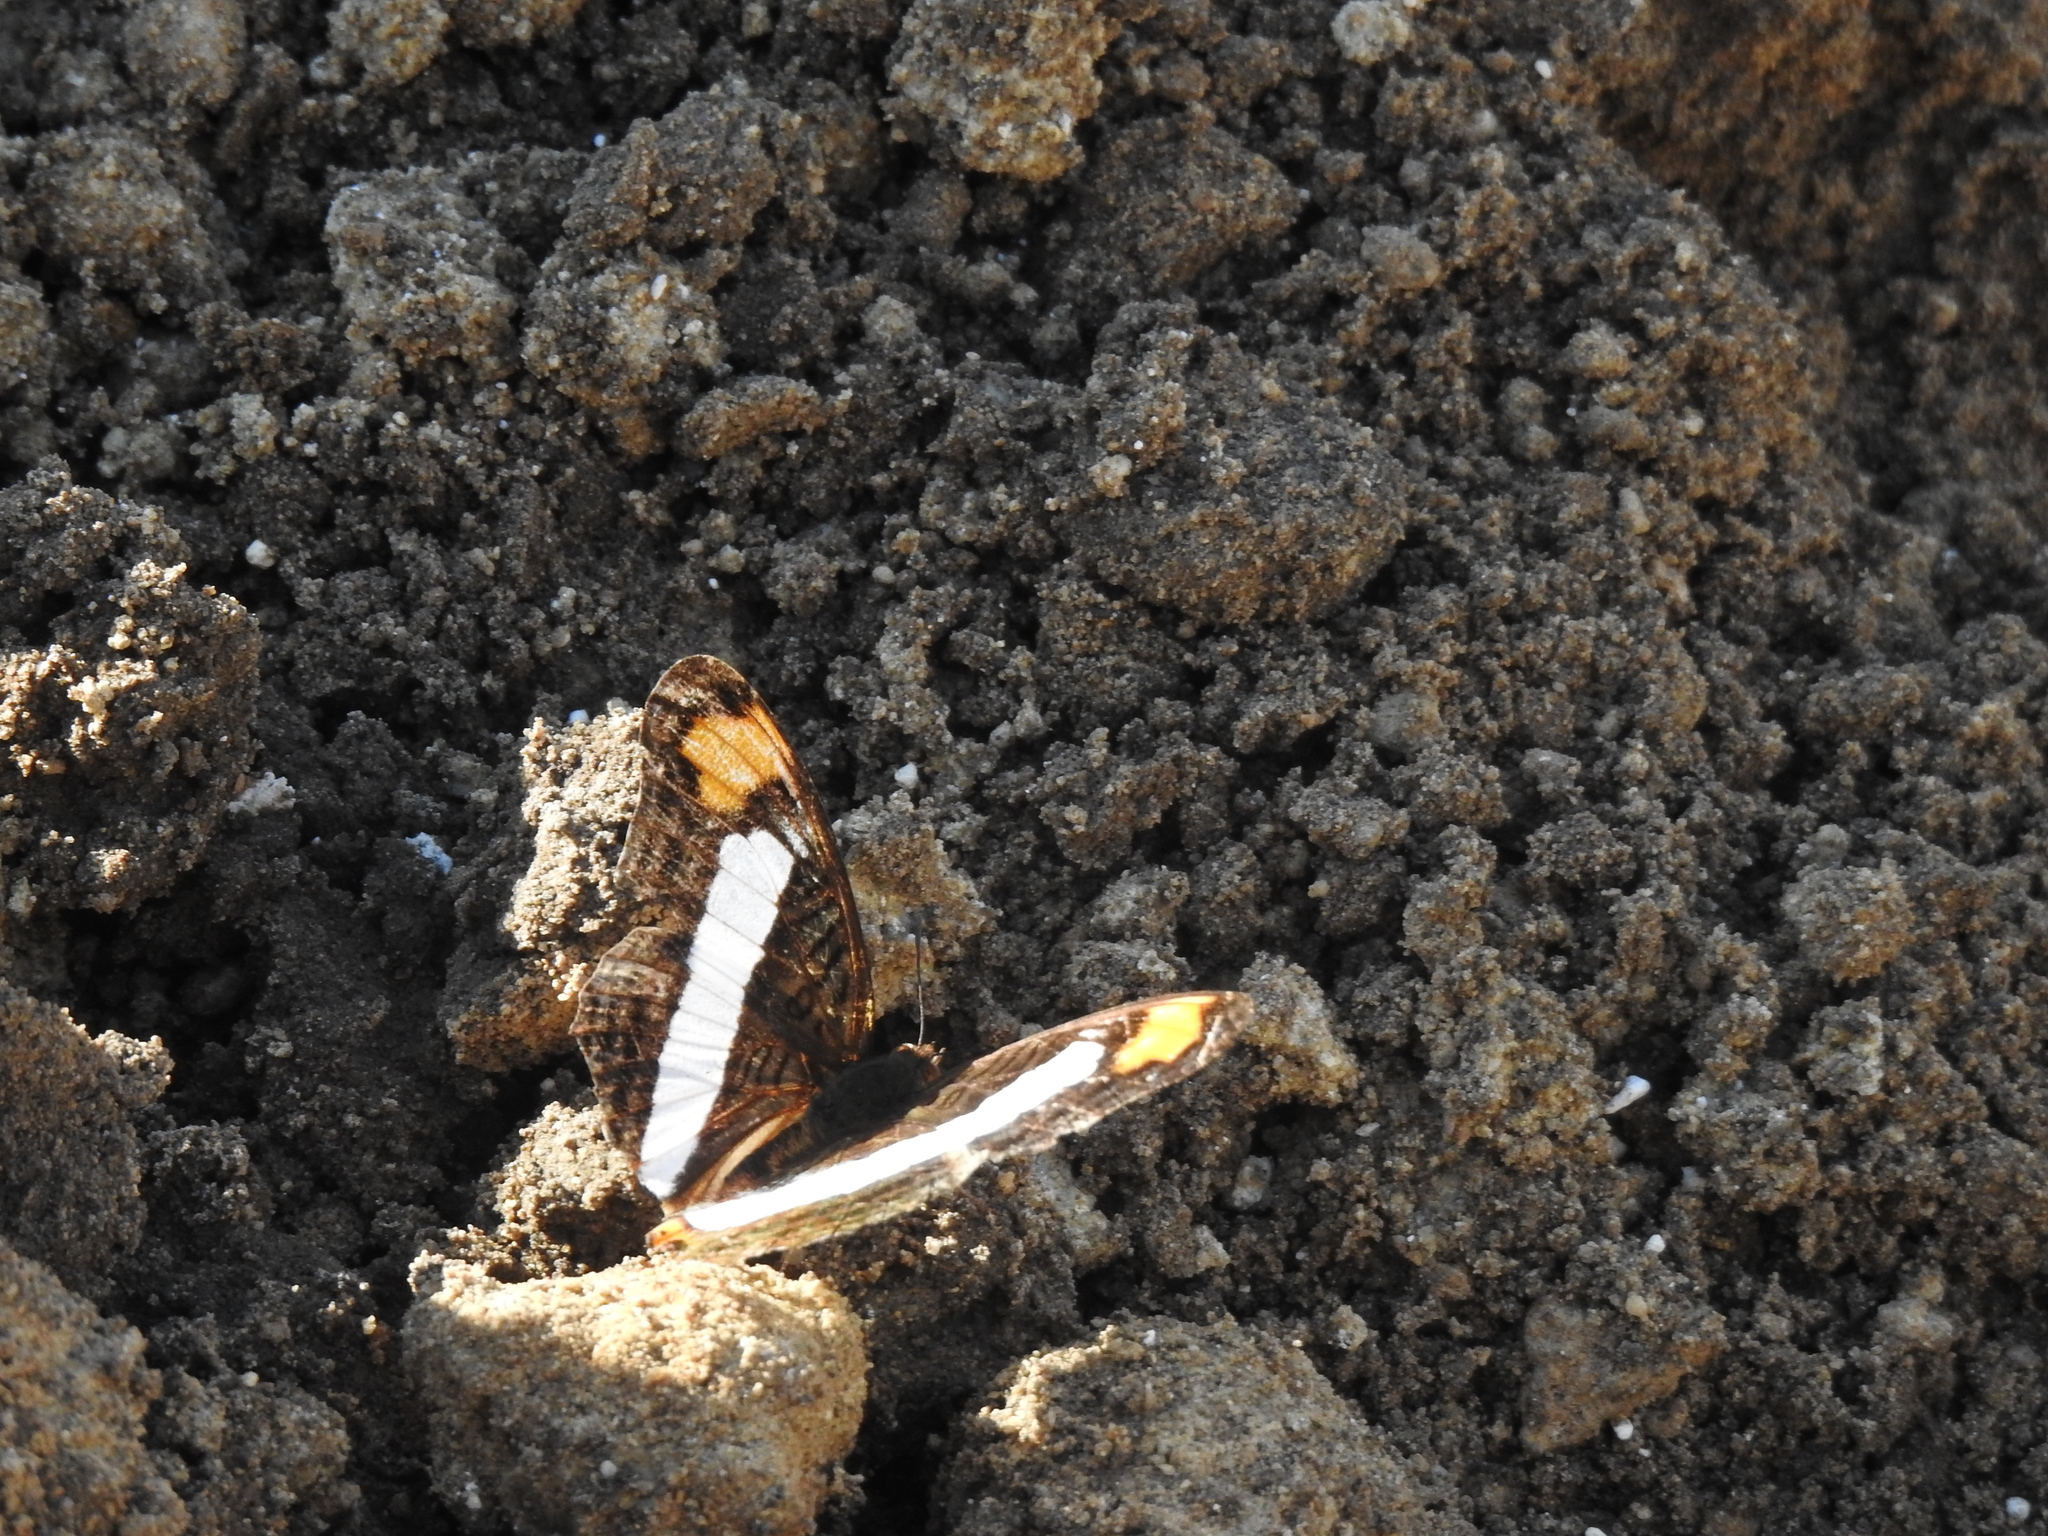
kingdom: Animalia
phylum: Arthropoda
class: Insecta
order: Lepidoptera
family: Nymphalidae
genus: Limenitis
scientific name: Limenitis Adelpha basiloides
